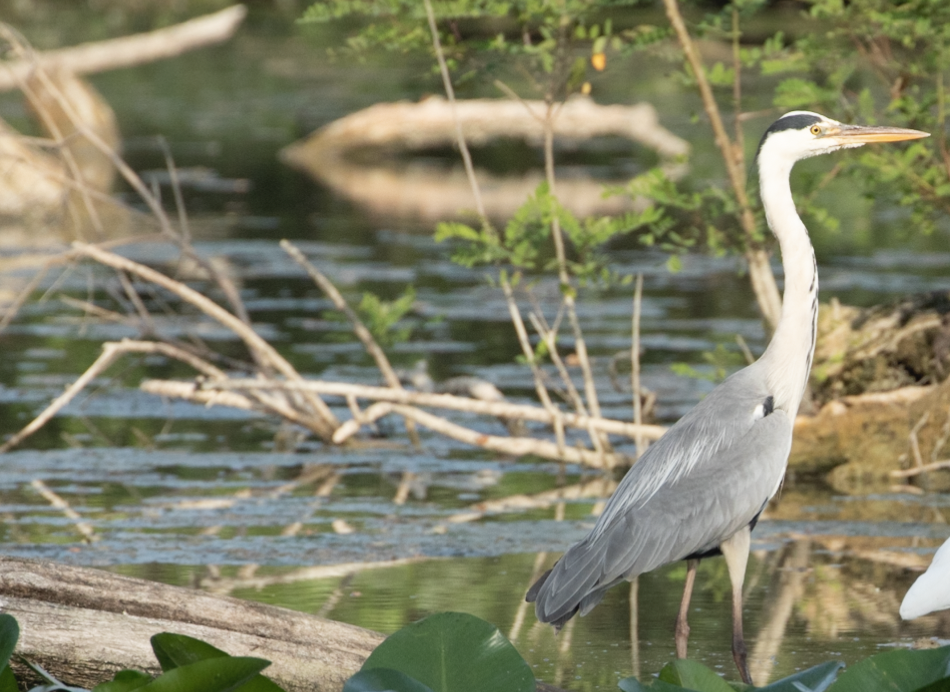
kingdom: Animalia
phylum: Chordata
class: Aves
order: Pelecaniformes
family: Ardeidae
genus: Ardea
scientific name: Ardea cinerea
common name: Grey heron
